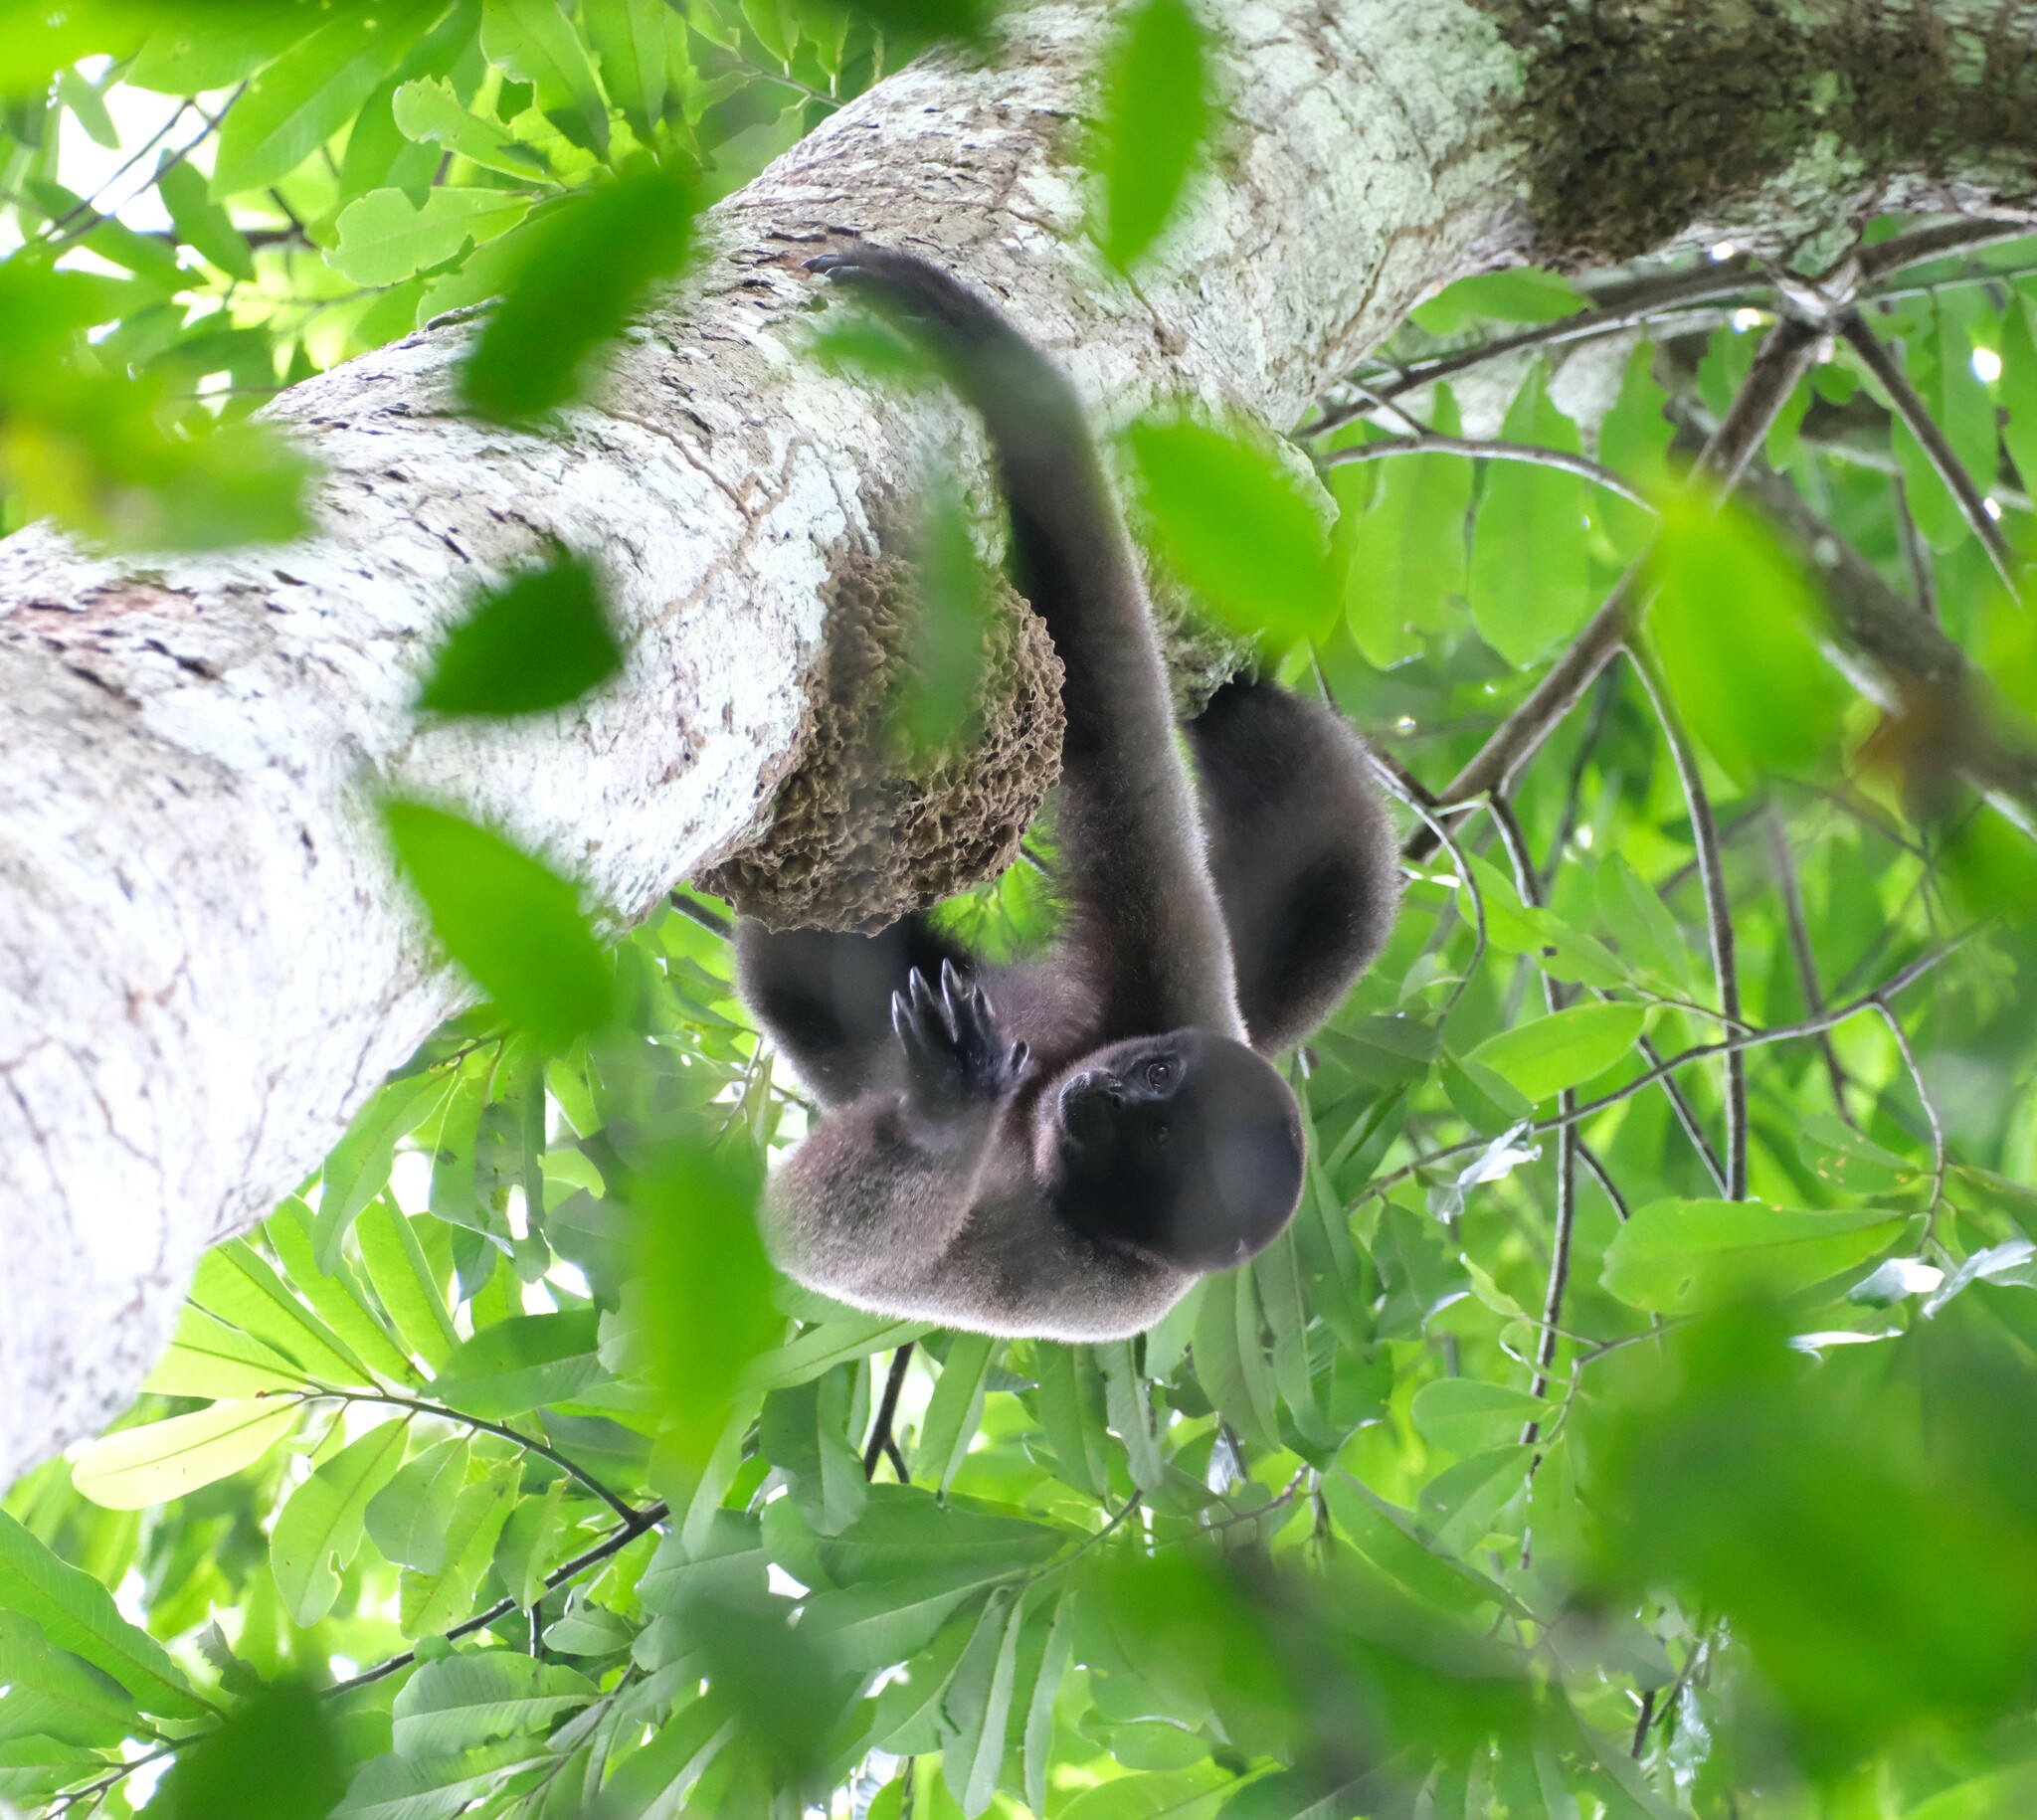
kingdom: Animalia
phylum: Chordata
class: Mammalia
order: Primates
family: Atelidae
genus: Lagothrix
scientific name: Lagothrix lagothricha
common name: Brown woolly monkey
